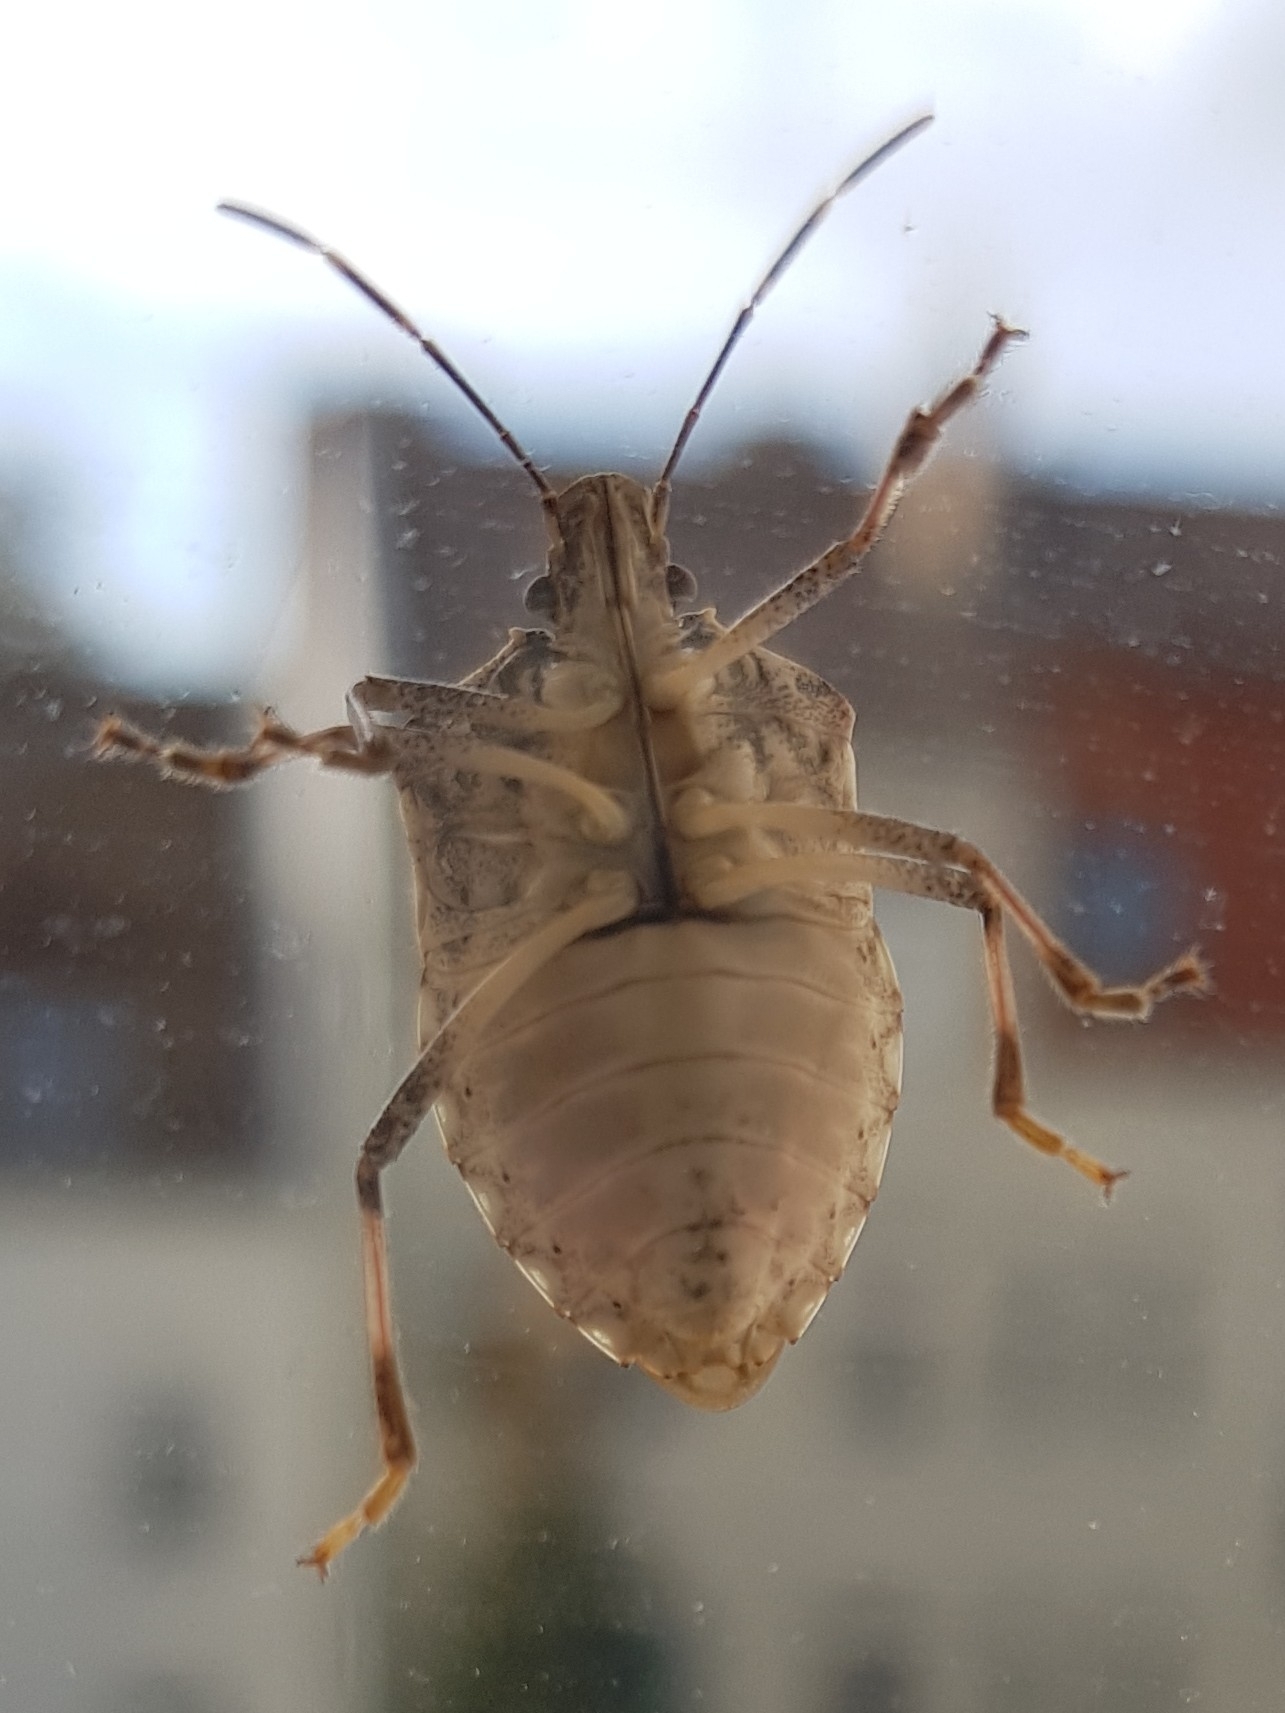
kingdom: Animalia
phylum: Arthropoda
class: Insecta
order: Hemiptera
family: Pentatomidae
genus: Halyomorpha
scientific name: Halyomorpha halys
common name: Brown marmorated stink bug
